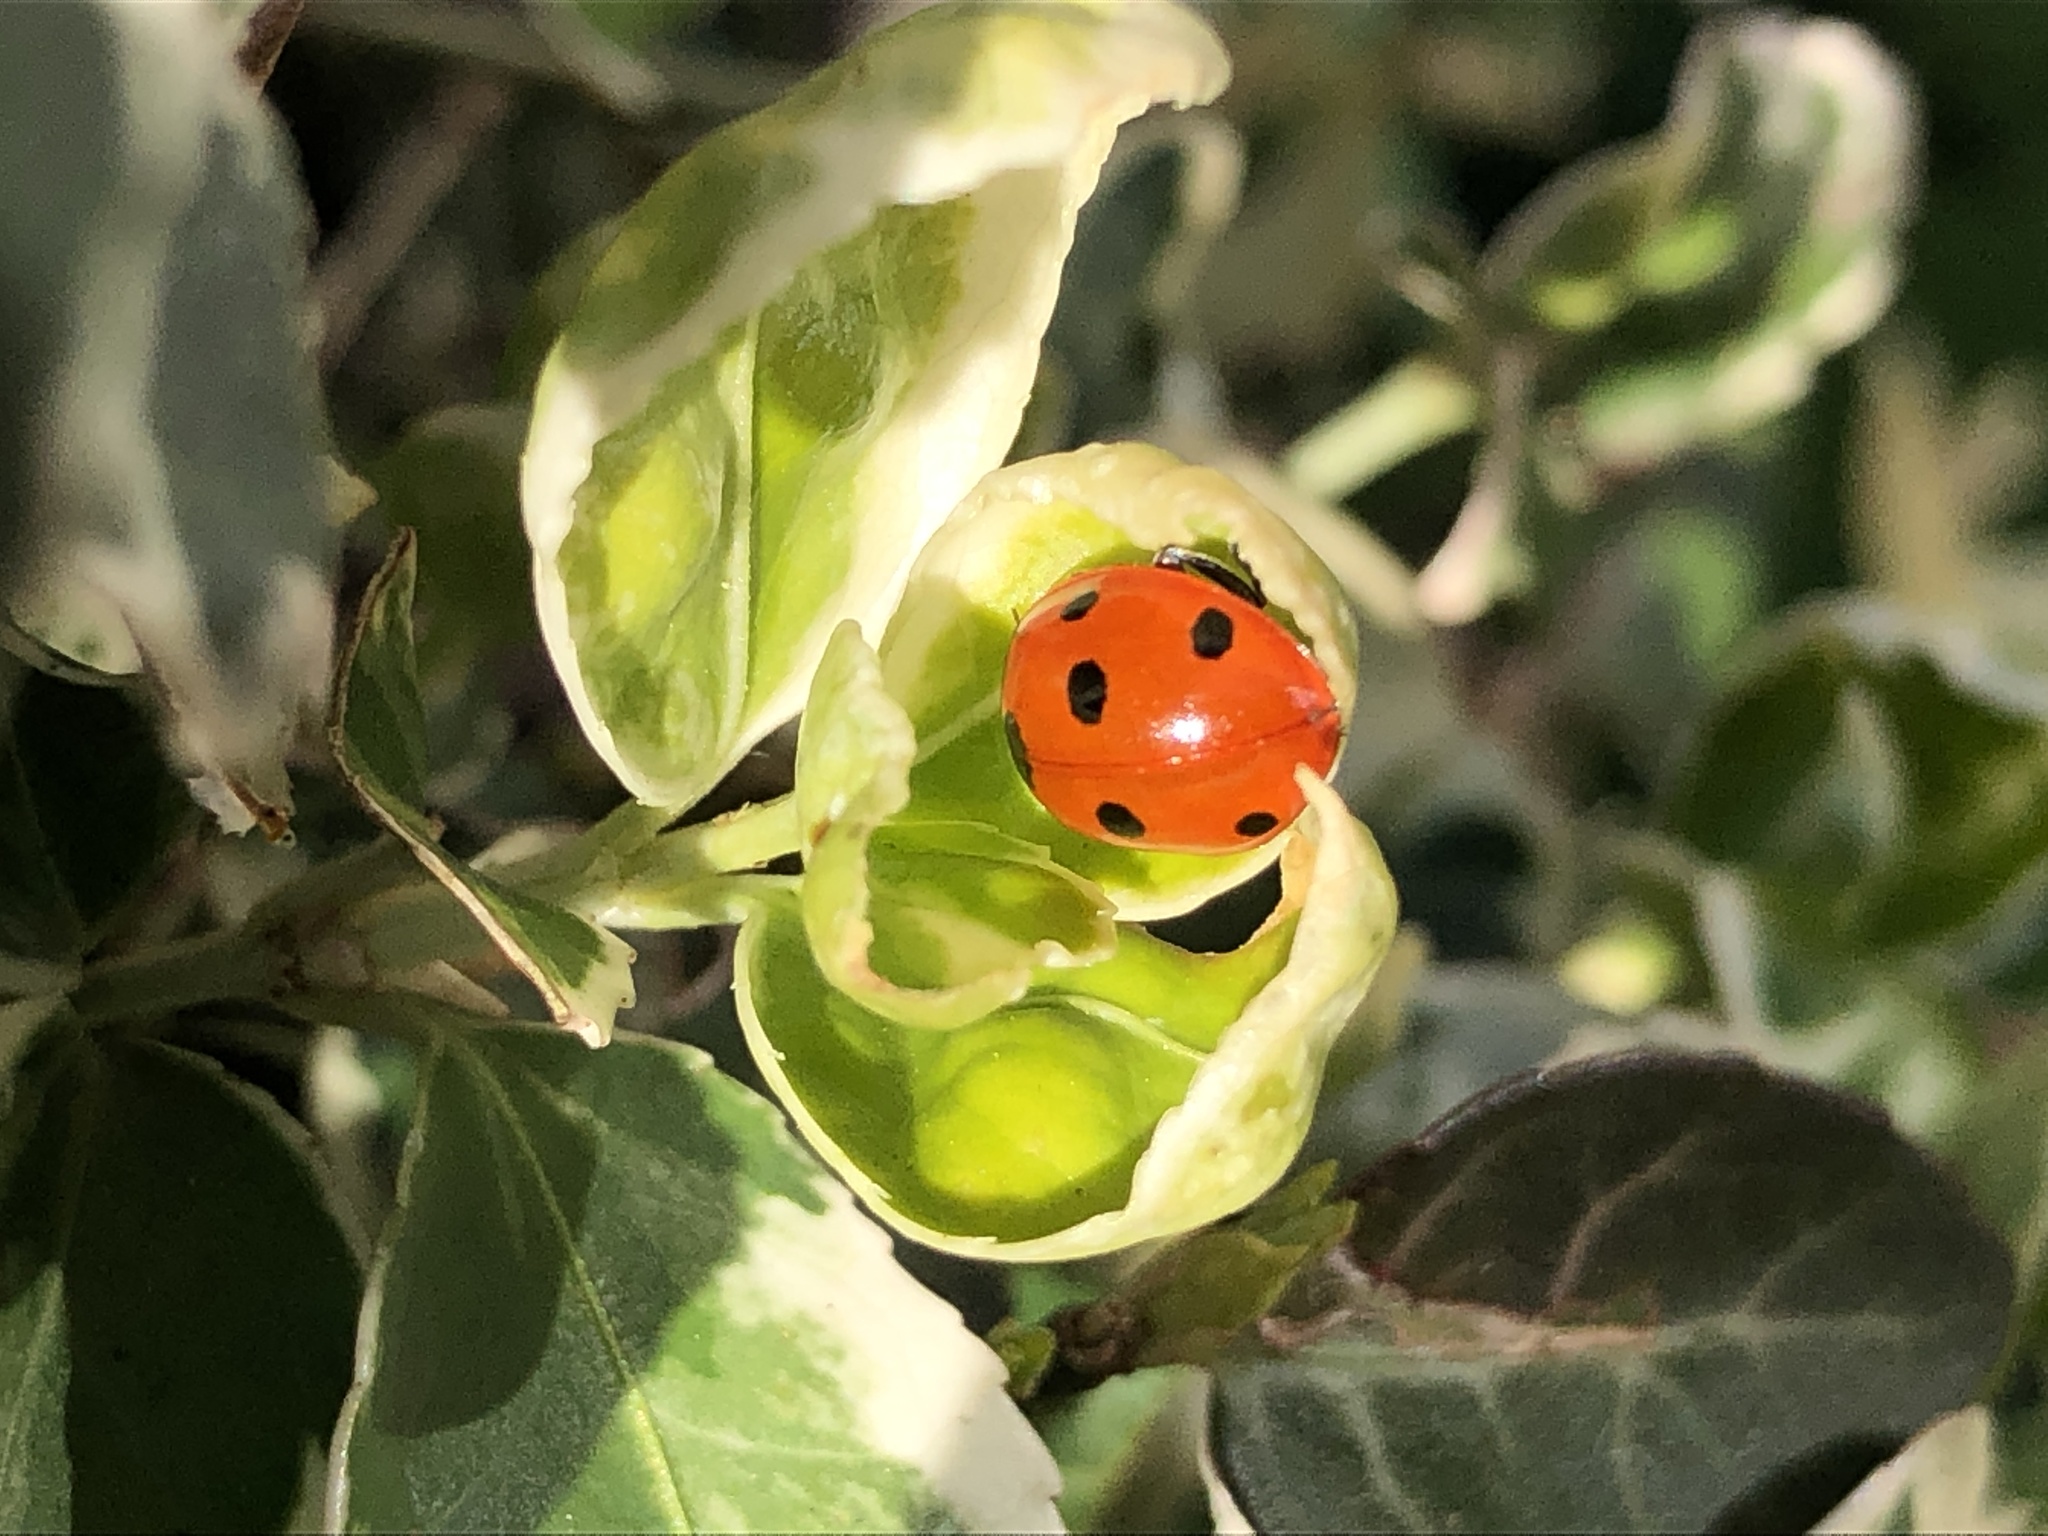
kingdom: Animalia
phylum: Arthropoda
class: Insecta
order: Coleoptera
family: Coccinellidae
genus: Coccinella
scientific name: Coccinella septempunctata
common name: Sevenspotted lady beetle
